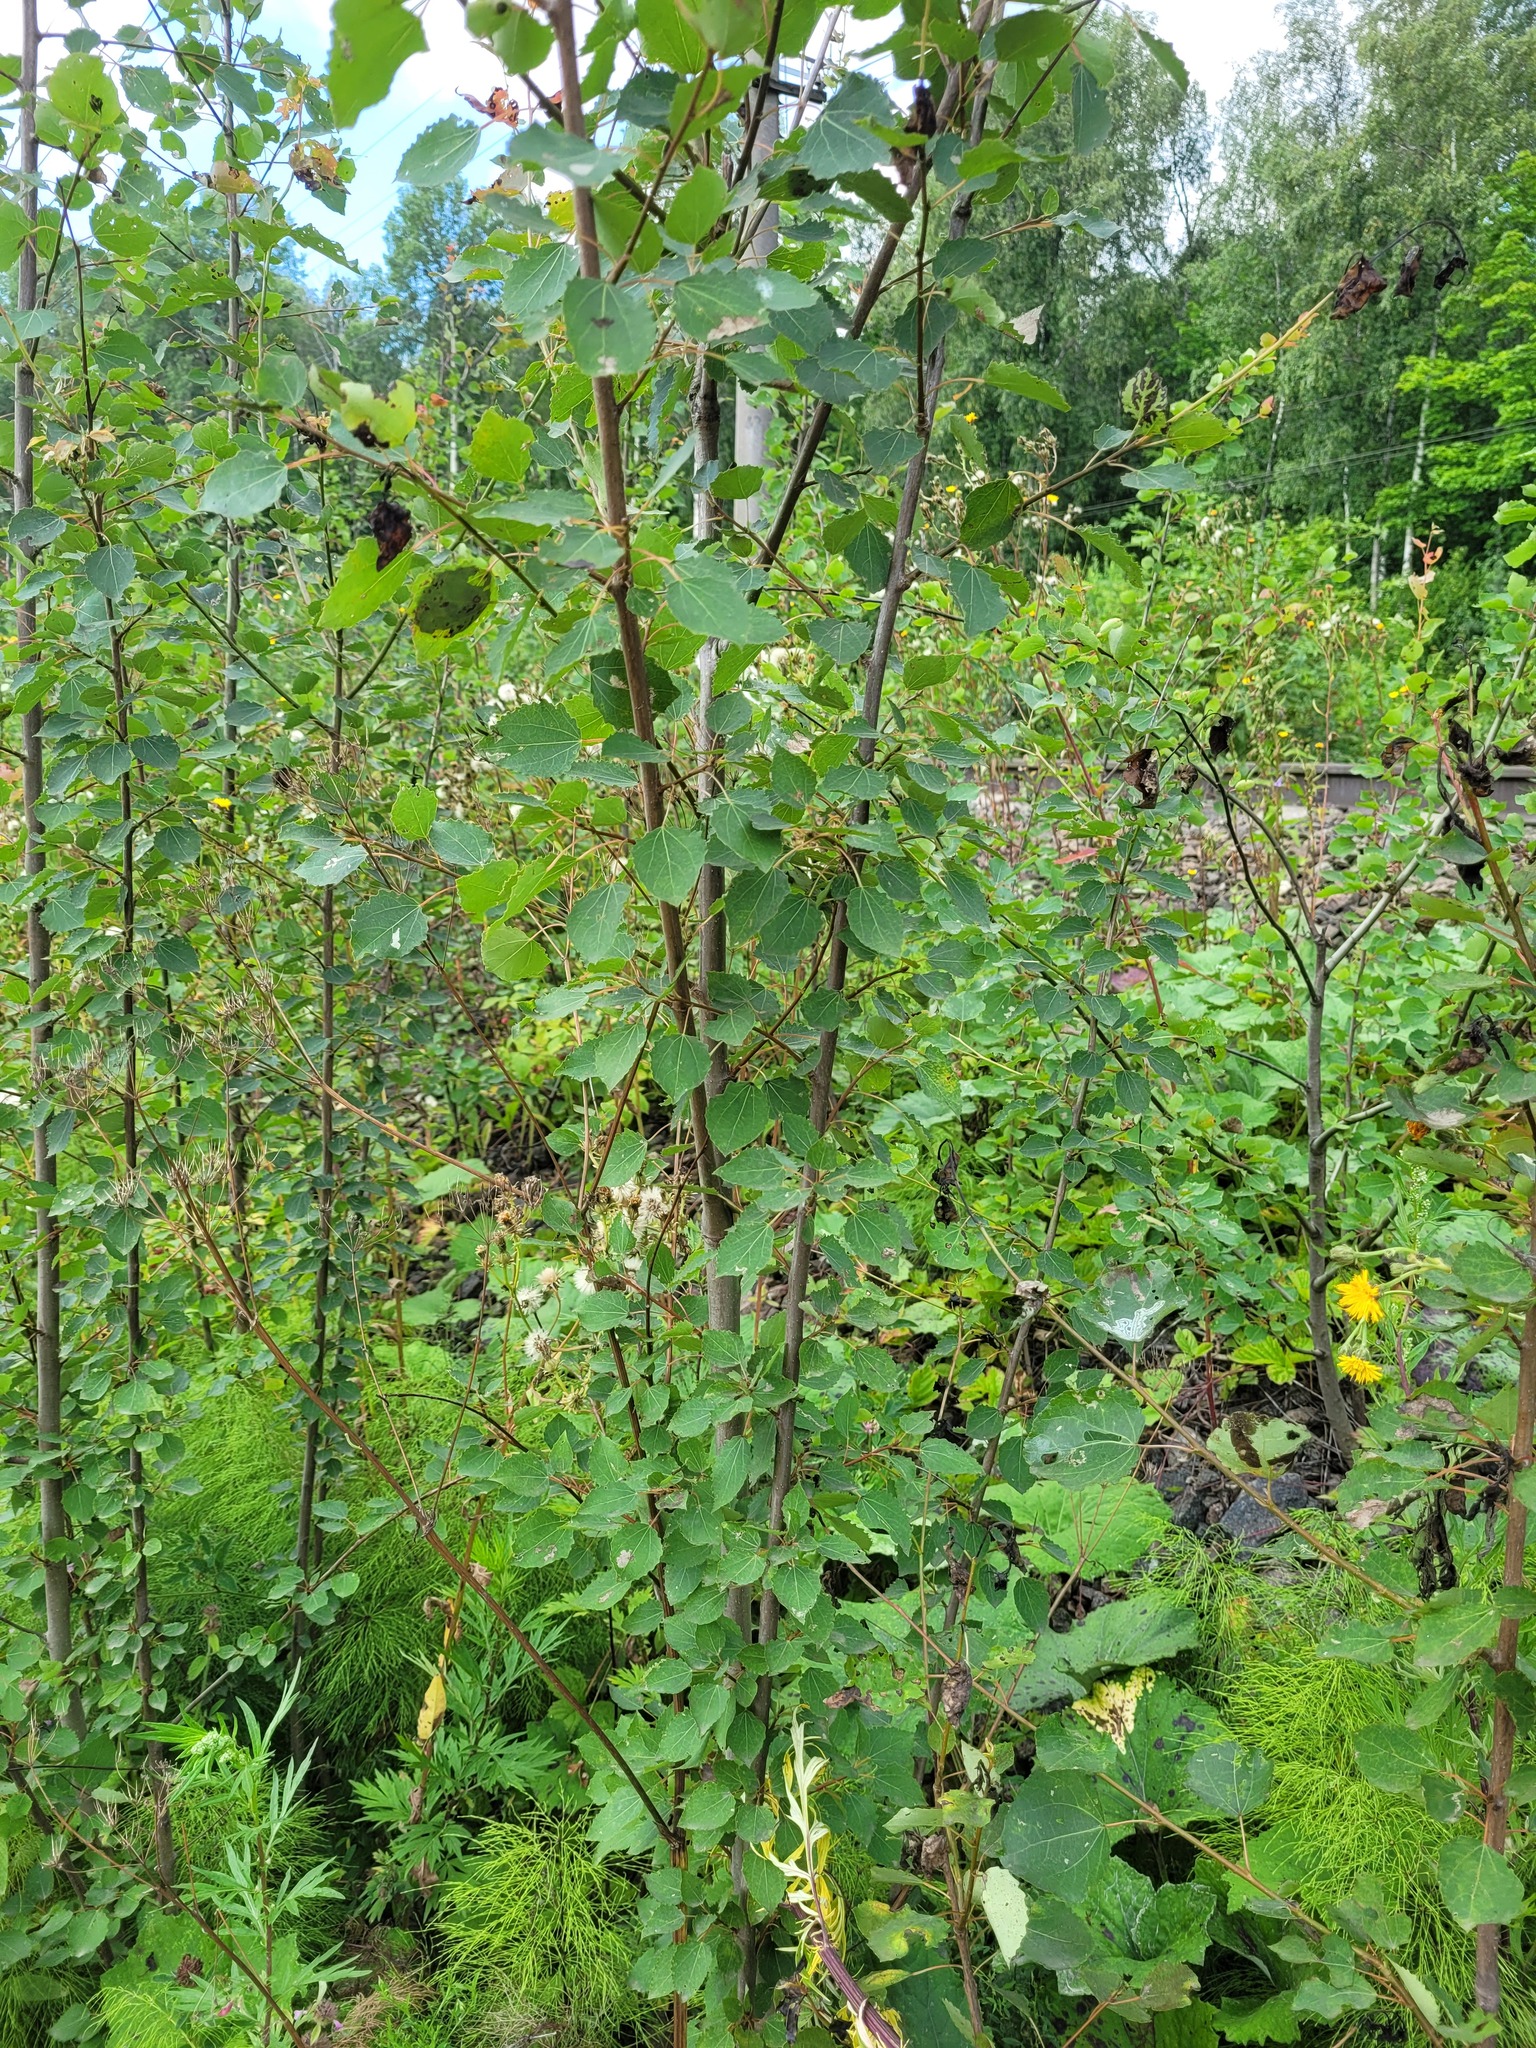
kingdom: Plantae
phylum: Tracheophyta
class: Magnoliopsida
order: Malpighiales
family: Salicaceae
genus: Populus
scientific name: Populus tremula
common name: European aspen
